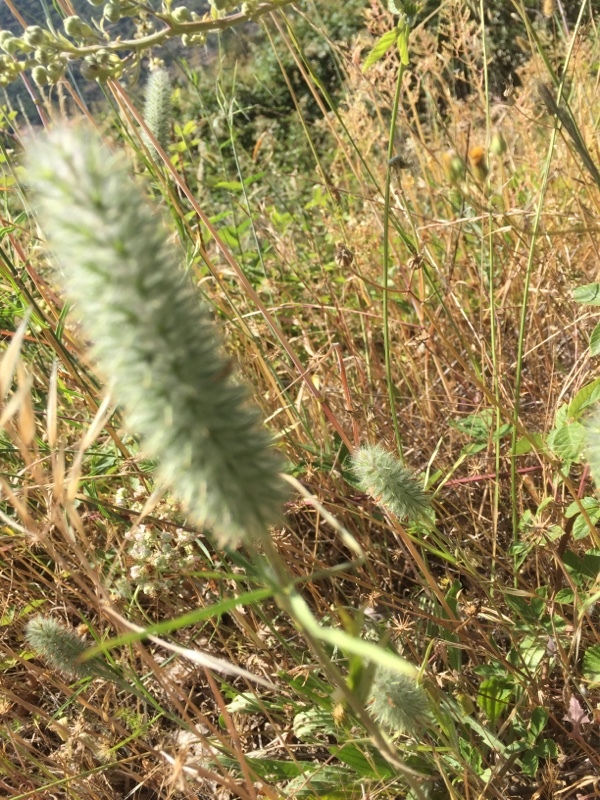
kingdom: Plantae
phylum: Tracheophyta
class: Magnoliopsida
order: Fabales
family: Fabaceae
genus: Trifolium
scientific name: Trifolium angustifolium
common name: Narrow clover
